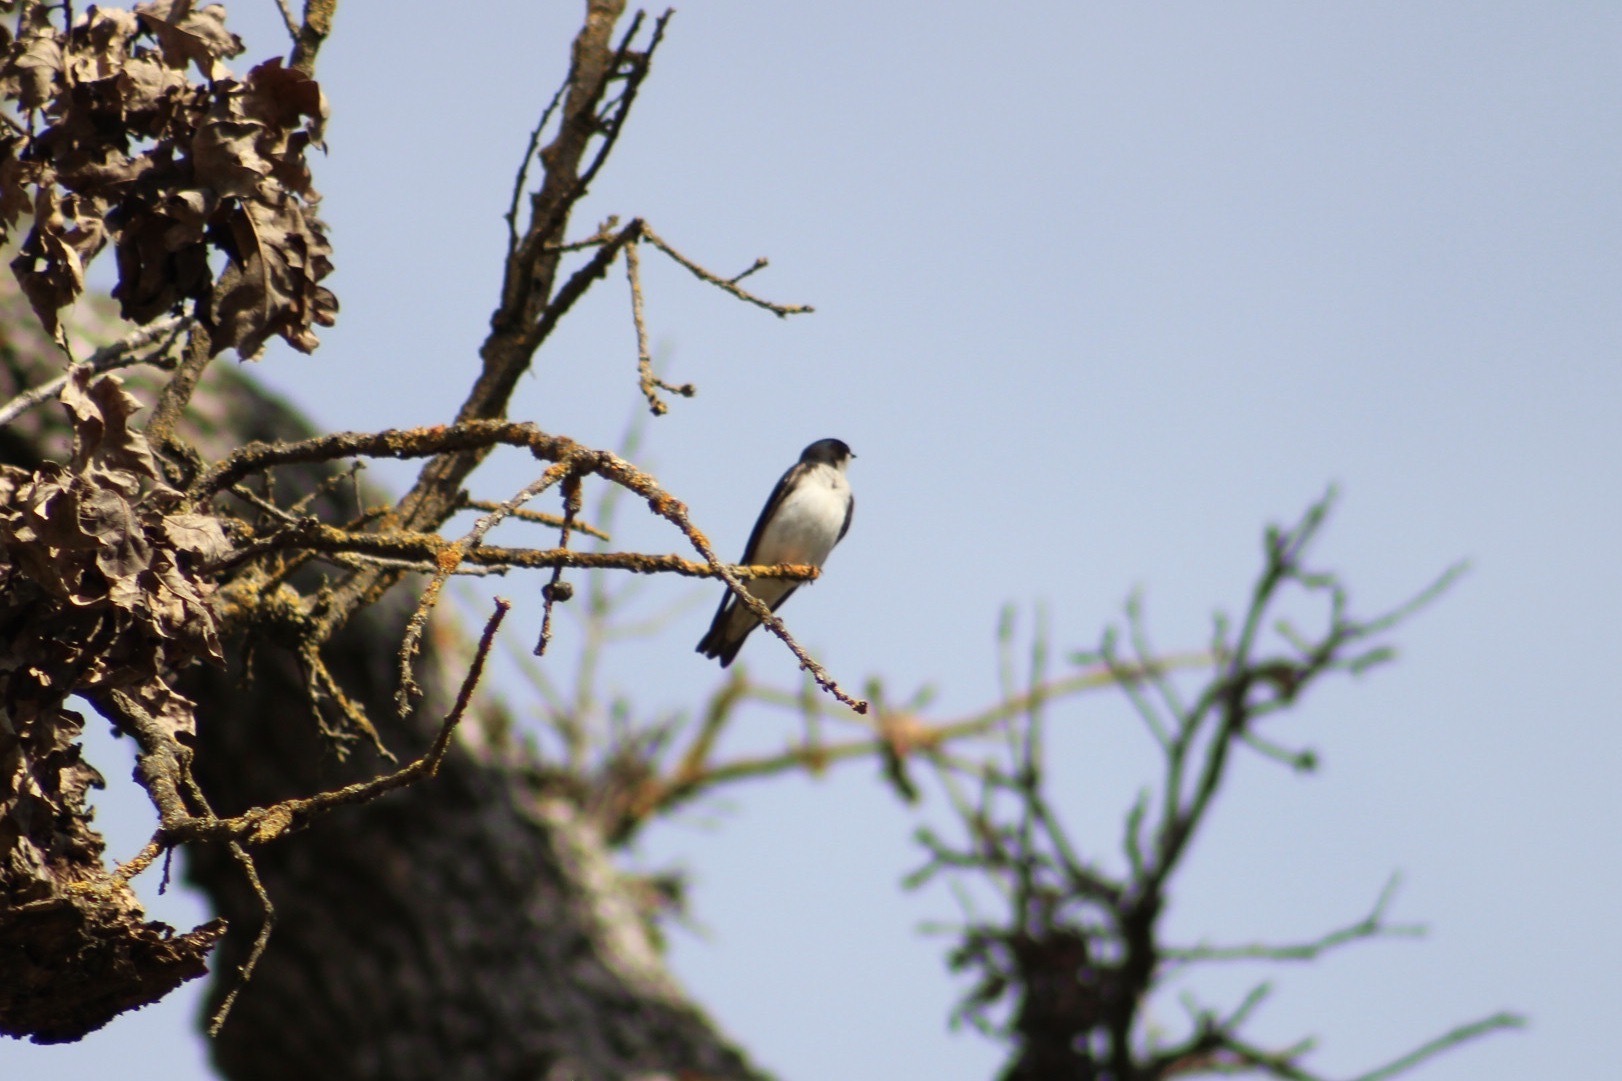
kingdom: Animalia
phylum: Chordata
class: Aves
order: Passeriformes
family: Hirundinidae
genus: Tachycineta
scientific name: Tachycineta bicolor
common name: Tree swallow
